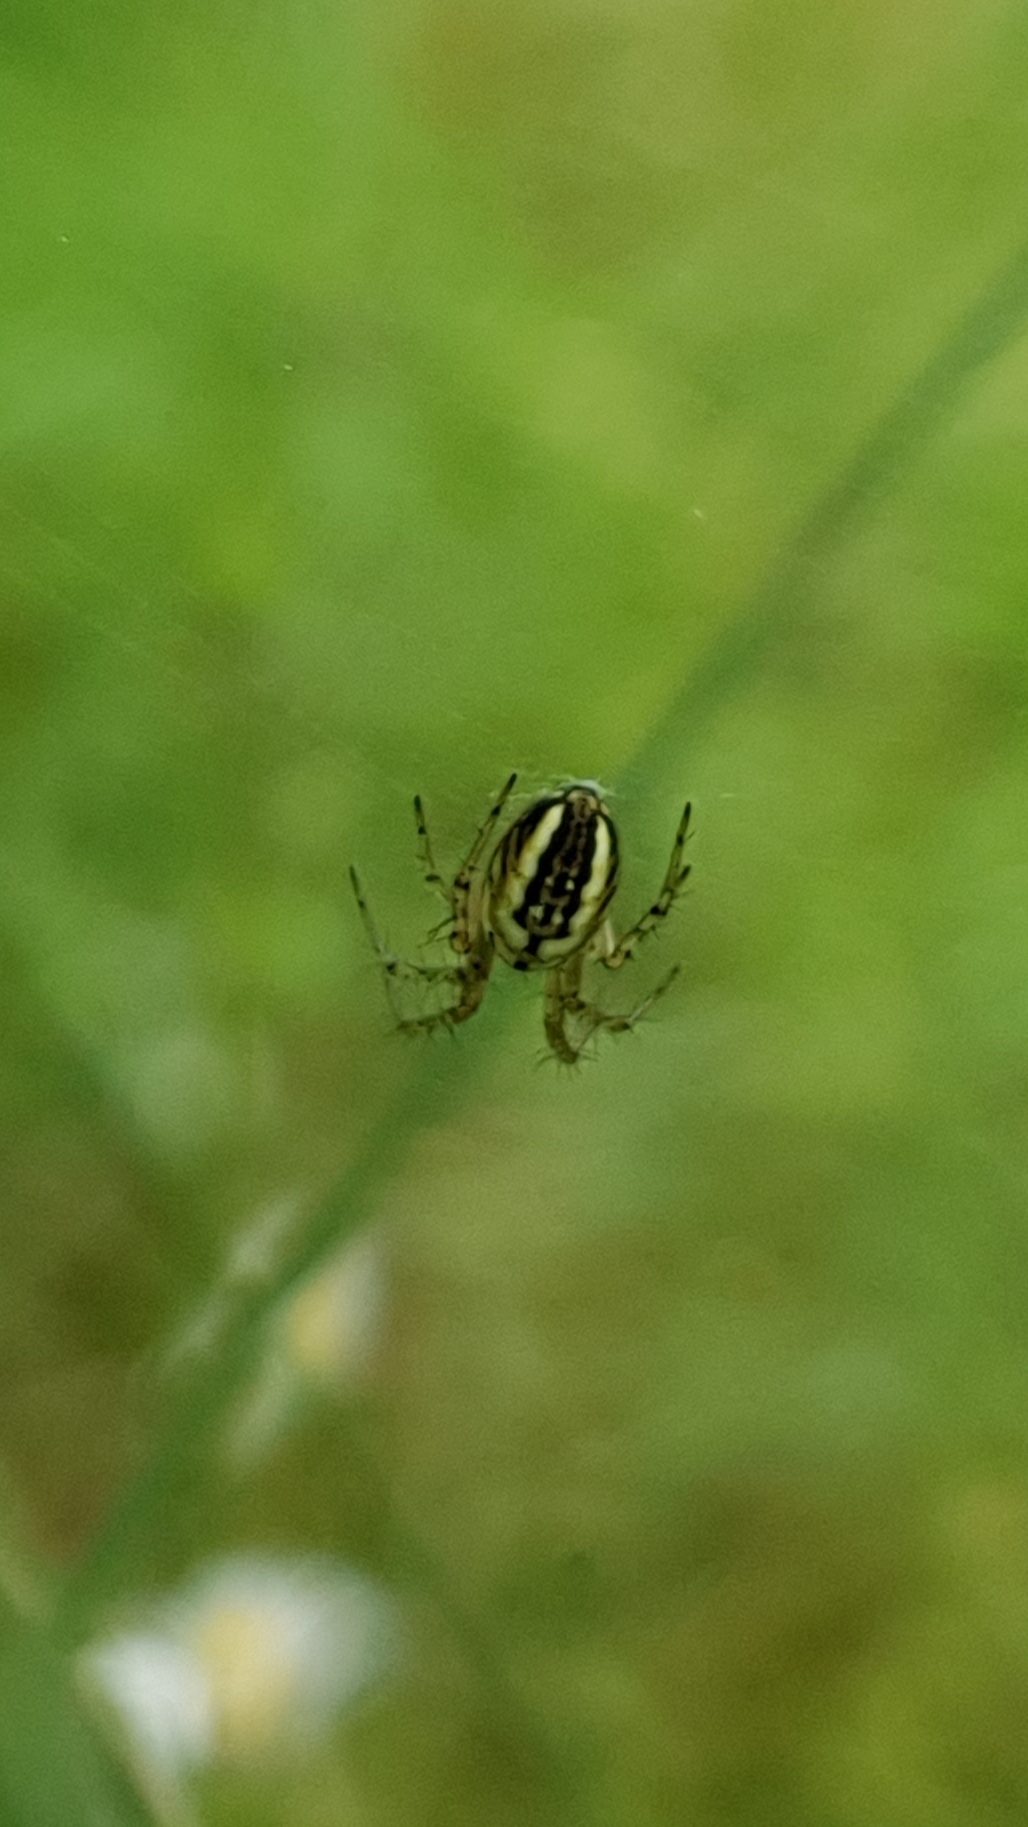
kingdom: Animalia
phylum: Arthropoda
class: Arachnida
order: Araneae
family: Araneidae
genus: Mangora
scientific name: Mangora acalypha
